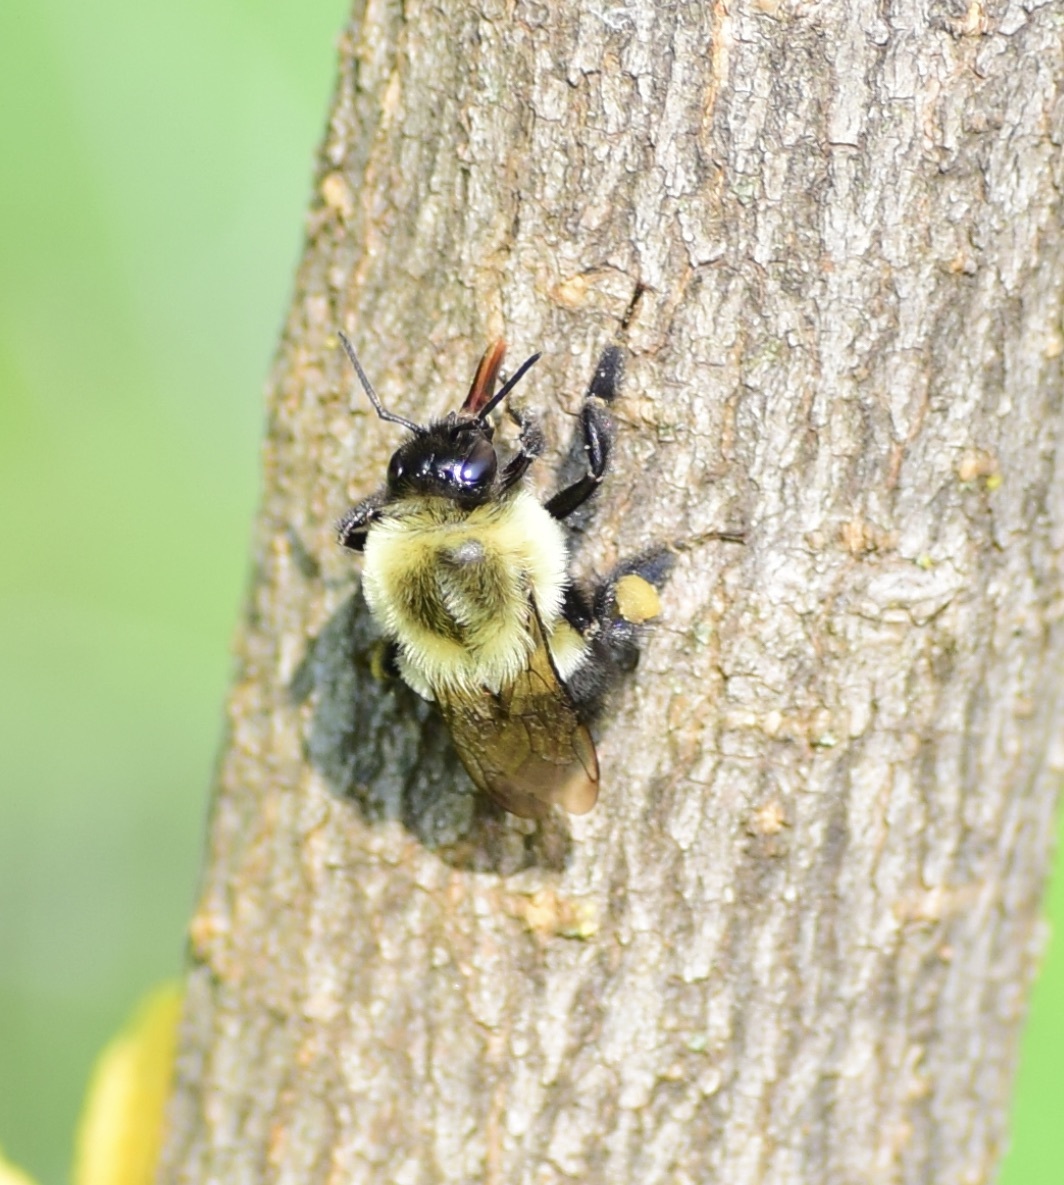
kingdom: Animalia
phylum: Arthropoda
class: Insecta
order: Hymenoptera
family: Apidae
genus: Bombus
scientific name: Bombus impatiens
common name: Common eastern bumble bee
